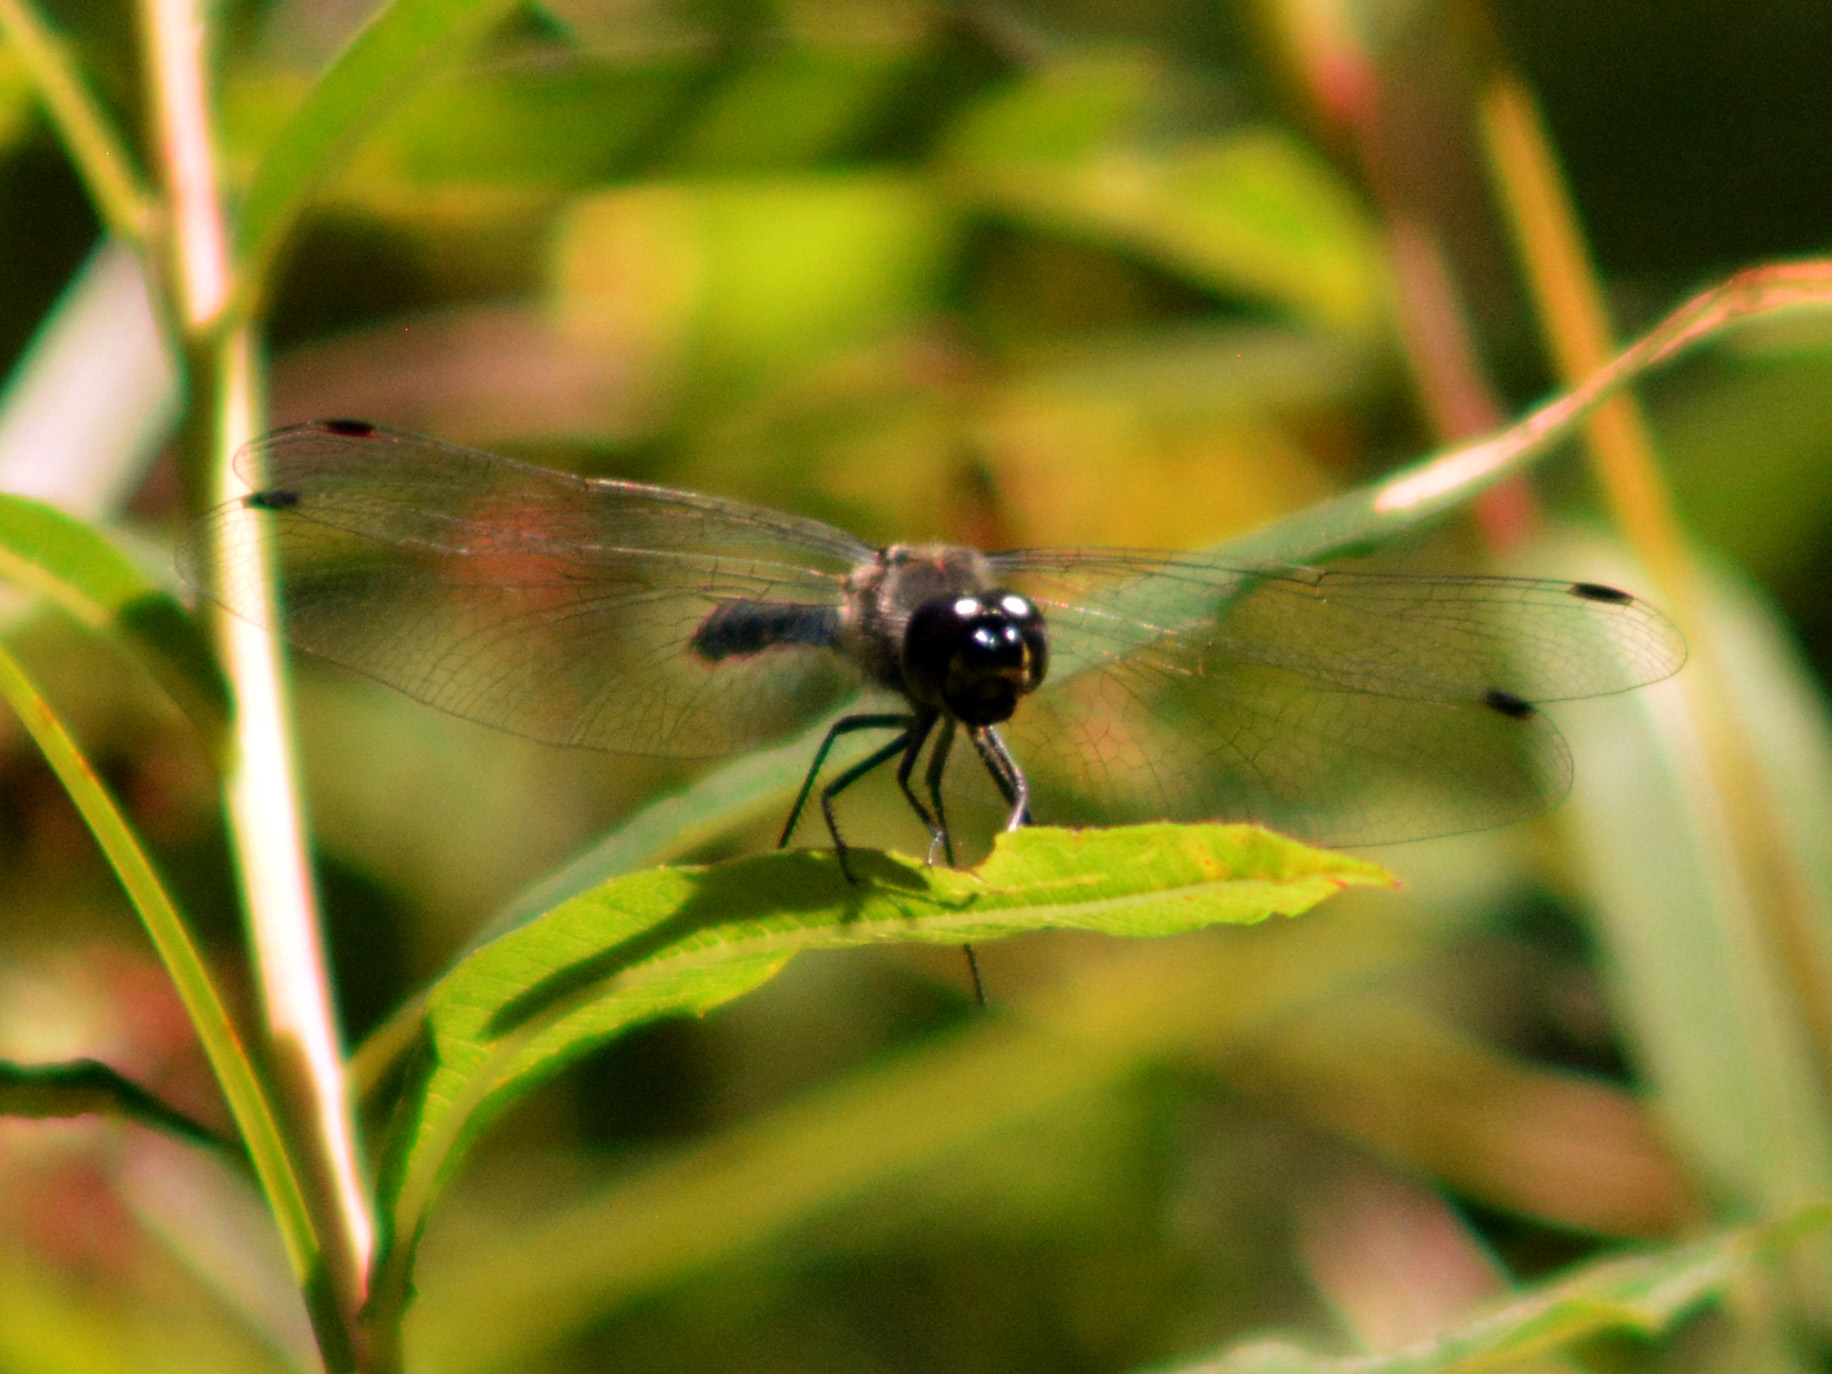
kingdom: Animalia
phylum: Arthropoda
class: Insecta
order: Odonata
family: Libellulidae
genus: Sympetrum
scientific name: Sympetrum danae
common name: Black darter
